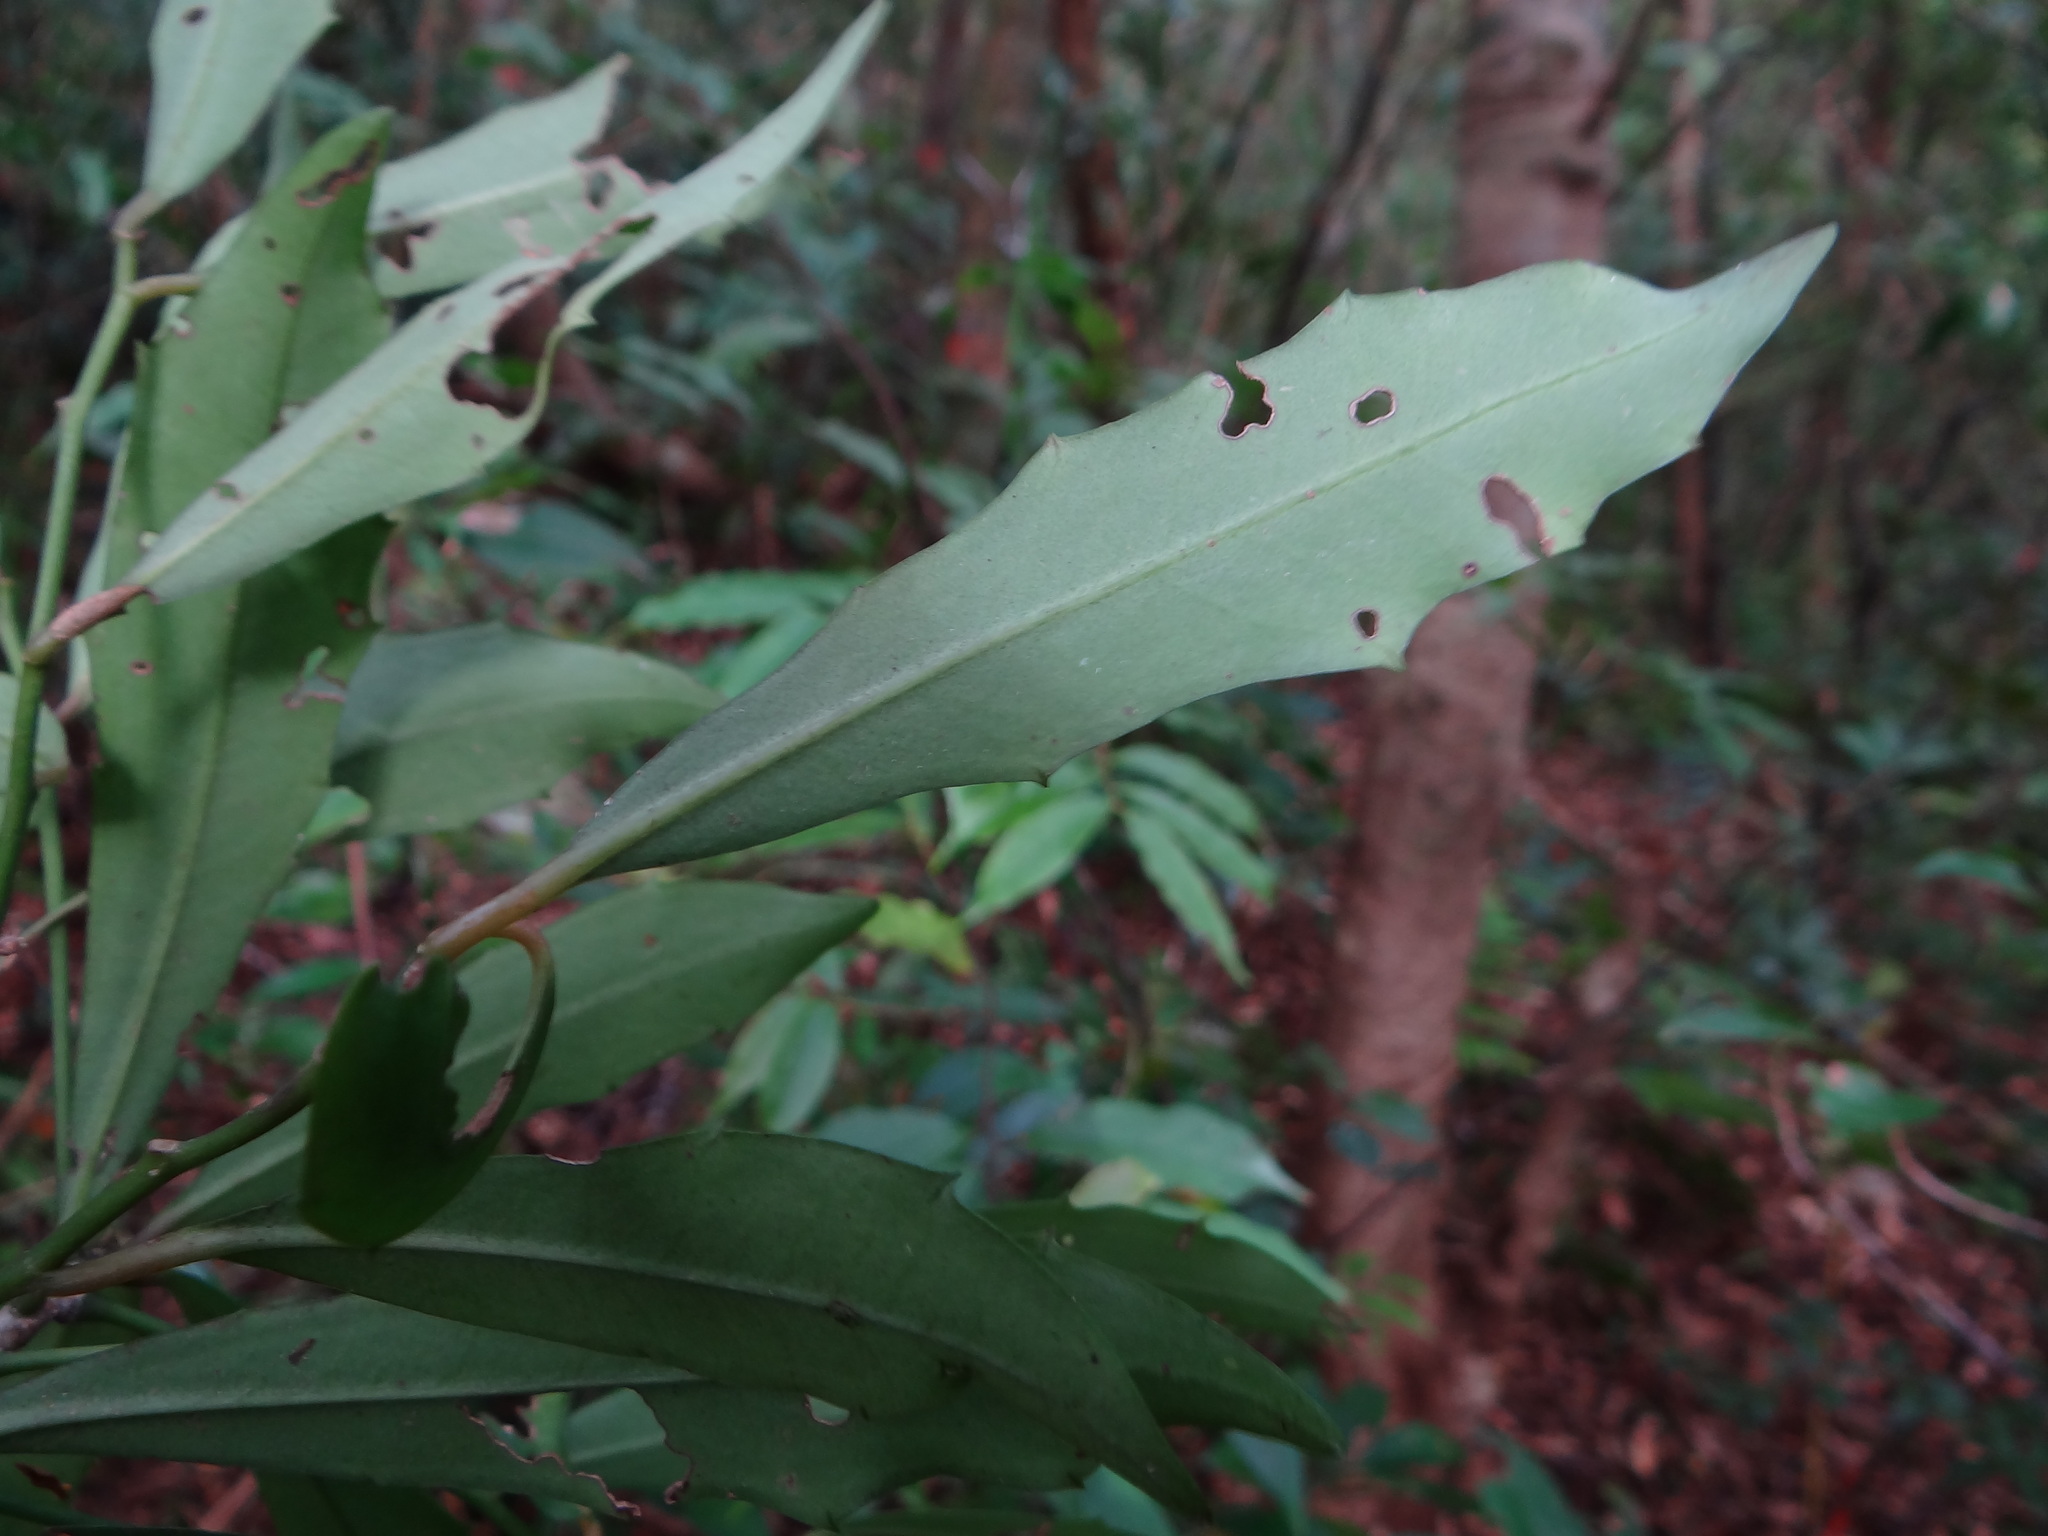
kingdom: Plantae
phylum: Tracheophyta
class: Magnoliopsida
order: Ericales
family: Primulaceae
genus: Ardisia
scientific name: Ardisia cornudentata
